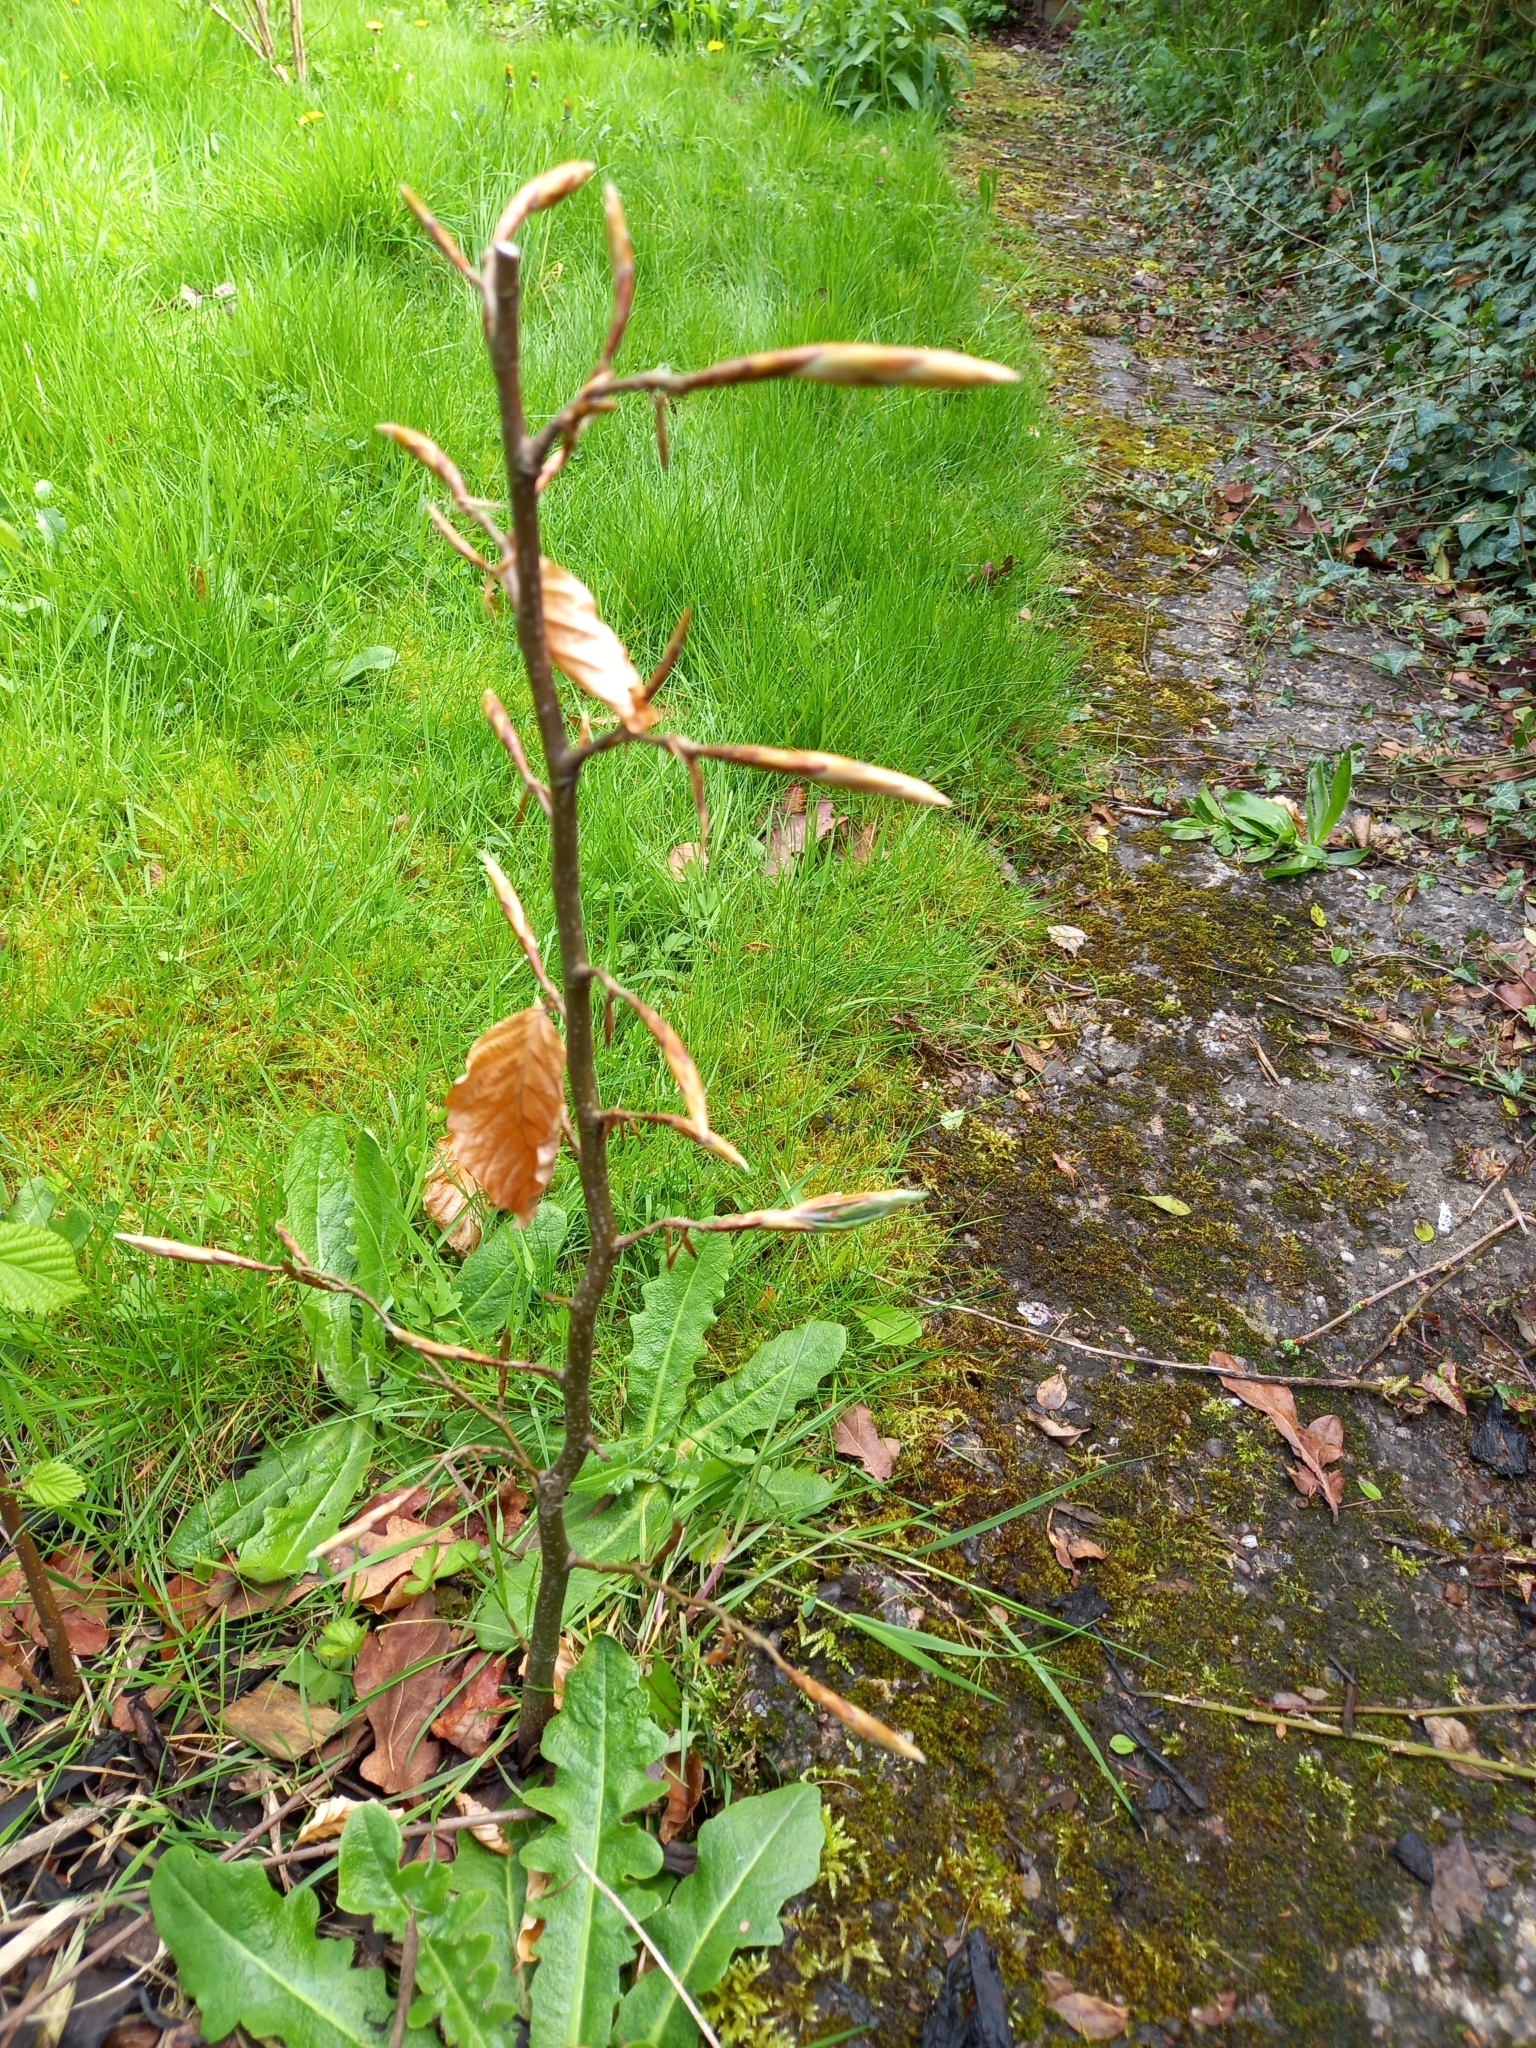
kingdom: Plantae
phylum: Tracheophyta
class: Magnoliopsida
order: Fagales
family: Fagaceae
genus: Fagus
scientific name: Fagus sylvatica
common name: Beech
